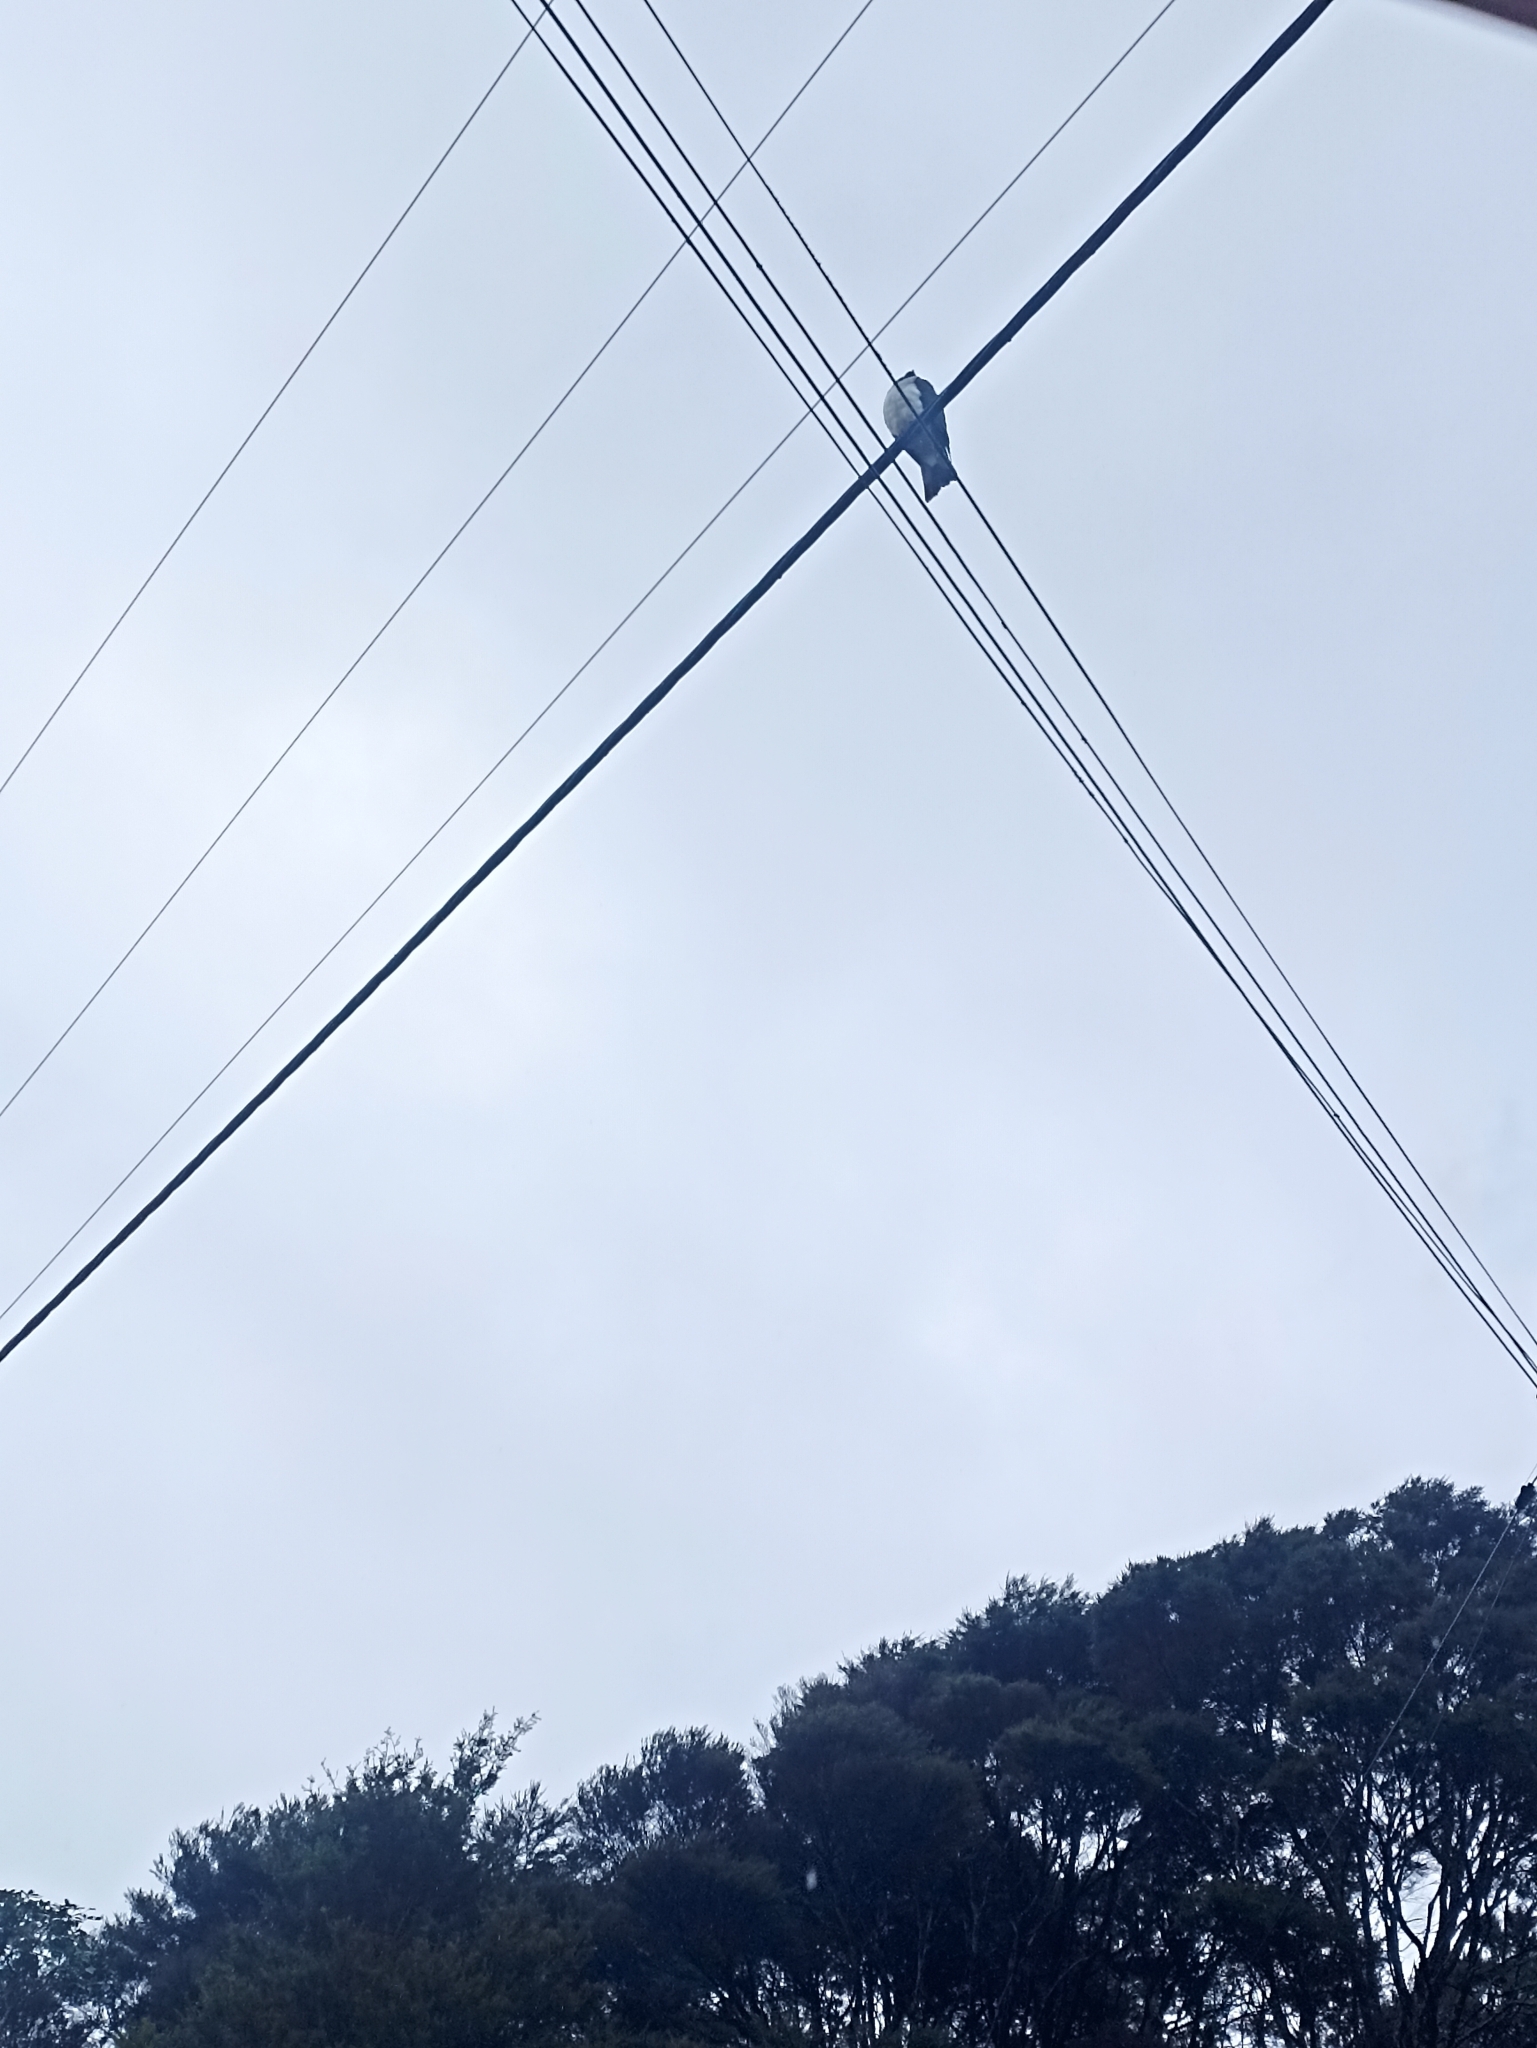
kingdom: Animalia
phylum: Chordata
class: Aves
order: Columbiformes
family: Columbidae
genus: Hemiphaga
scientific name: Hemiphaga novaeseelandiae
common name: New zealand pigeon
